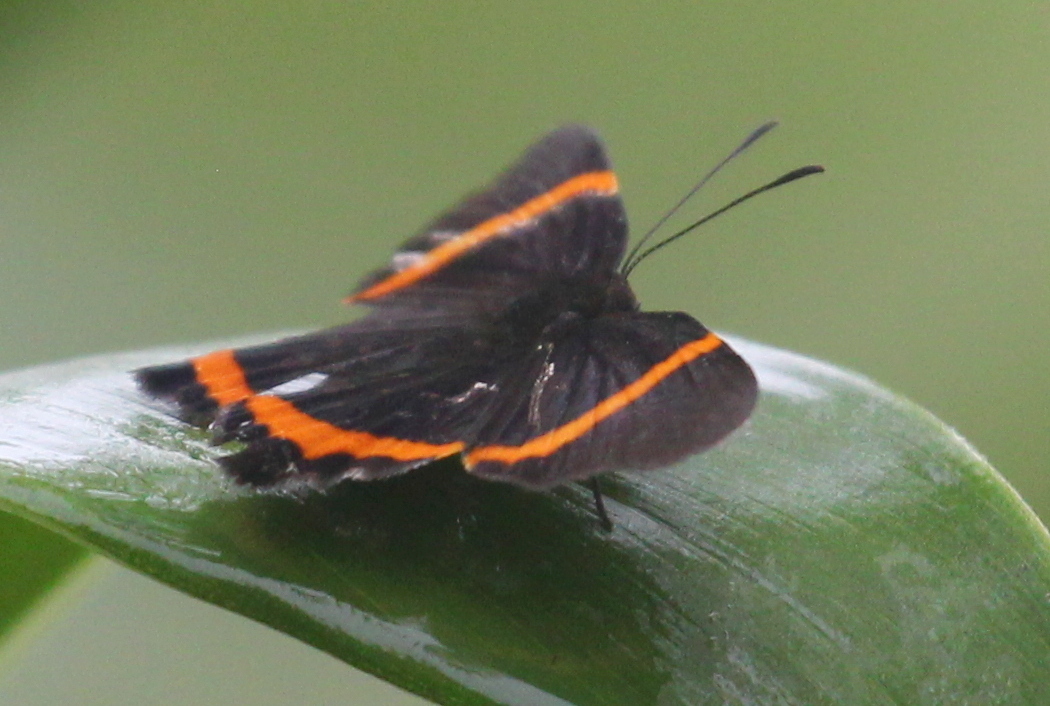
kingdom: Animalia
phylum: Arthropoda
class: Insecta
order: Lepidoptera
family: Riodinidae
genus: Riodina
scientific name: Riodina lysippus
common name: Lysippus metalmark
